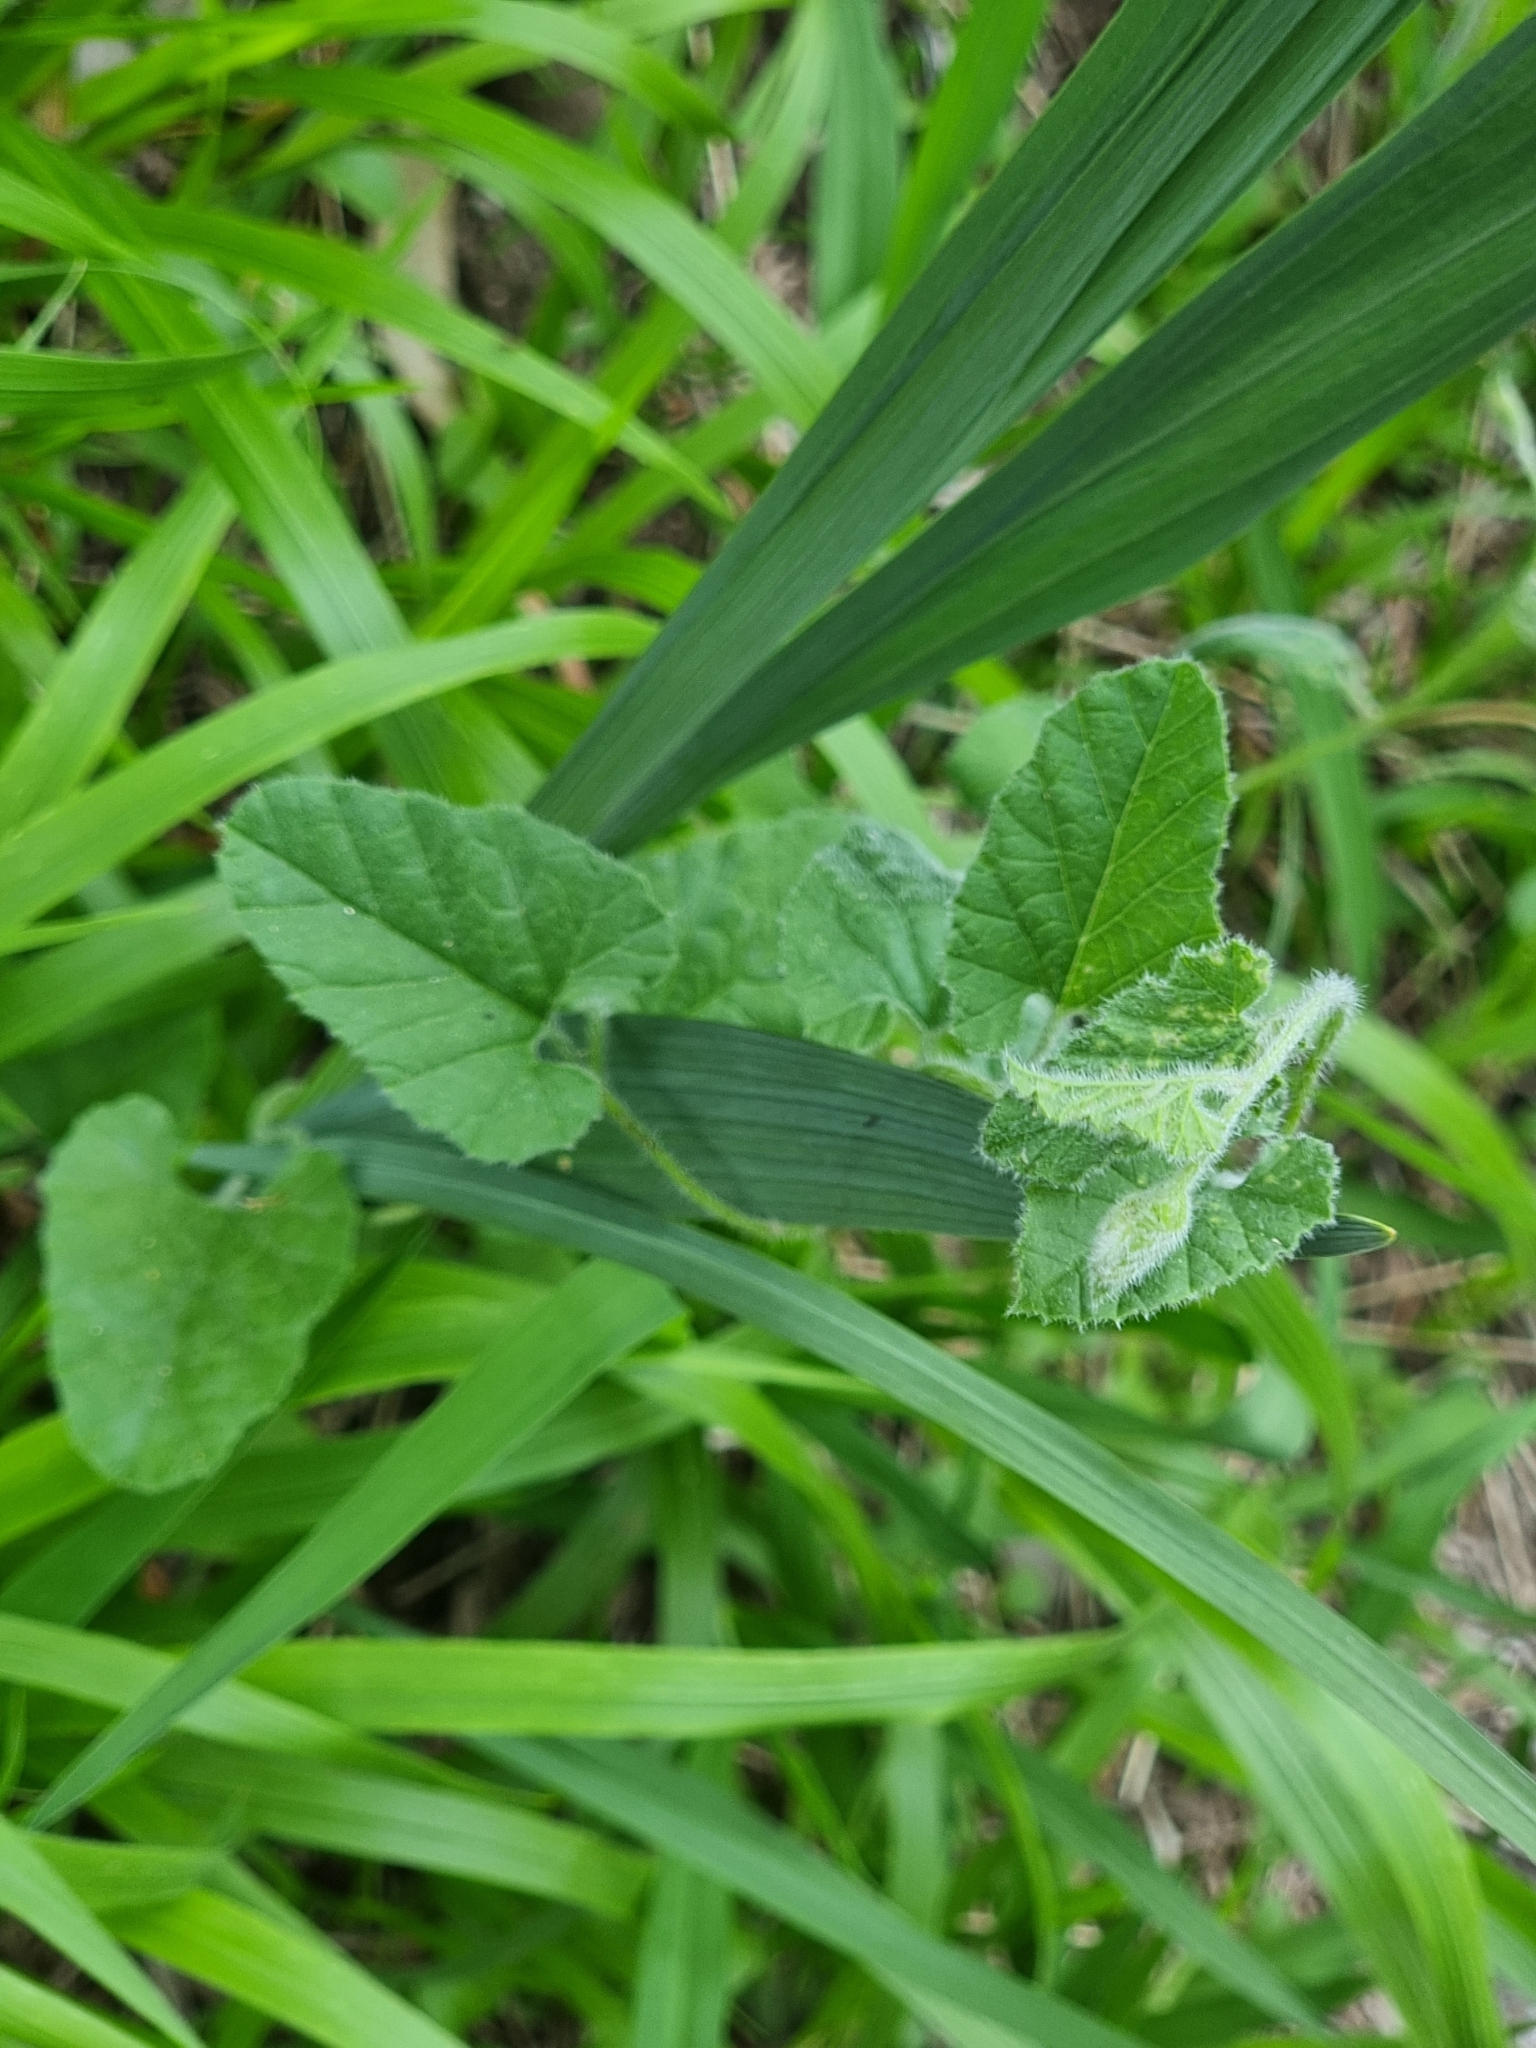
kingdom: Plantae
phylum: Tracheophyta
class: Magnoliopsida
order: Solanales
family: Convolvulaceae
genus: Convolvulus
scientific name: Convolvulus althaeoides
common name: Mallow bindweed
